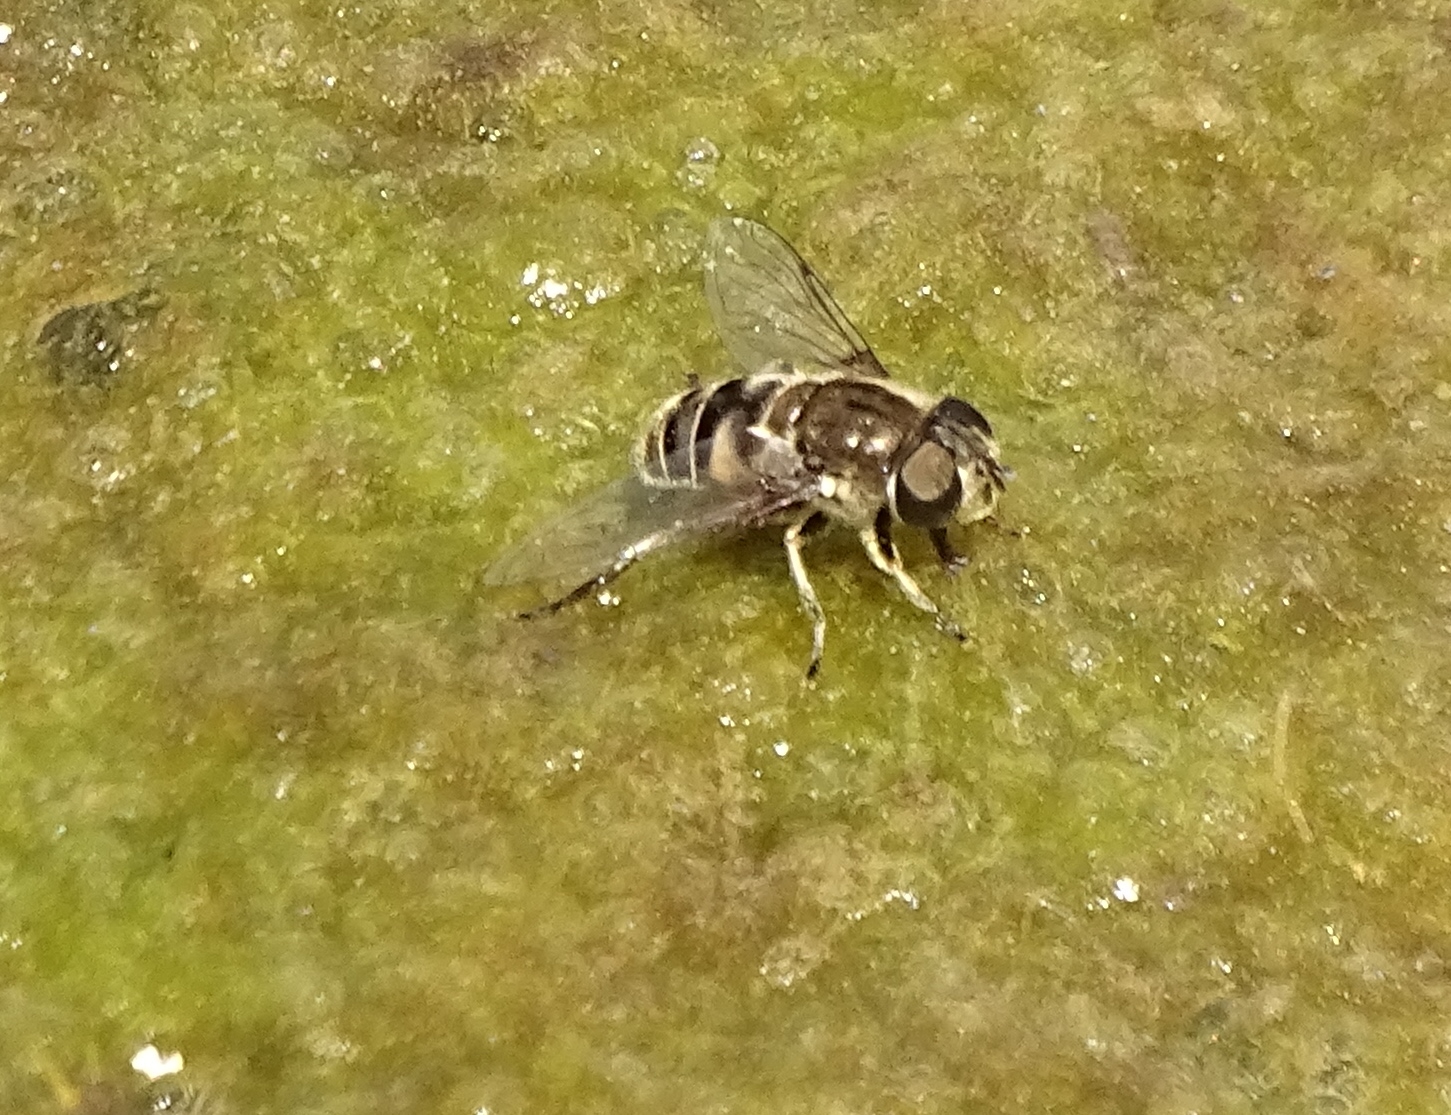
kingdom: Animalia
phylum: Arthropoda
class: Insecta
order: Diptera
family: Syrphidae
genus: Eristalis
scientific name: Eristalis dimidiata
